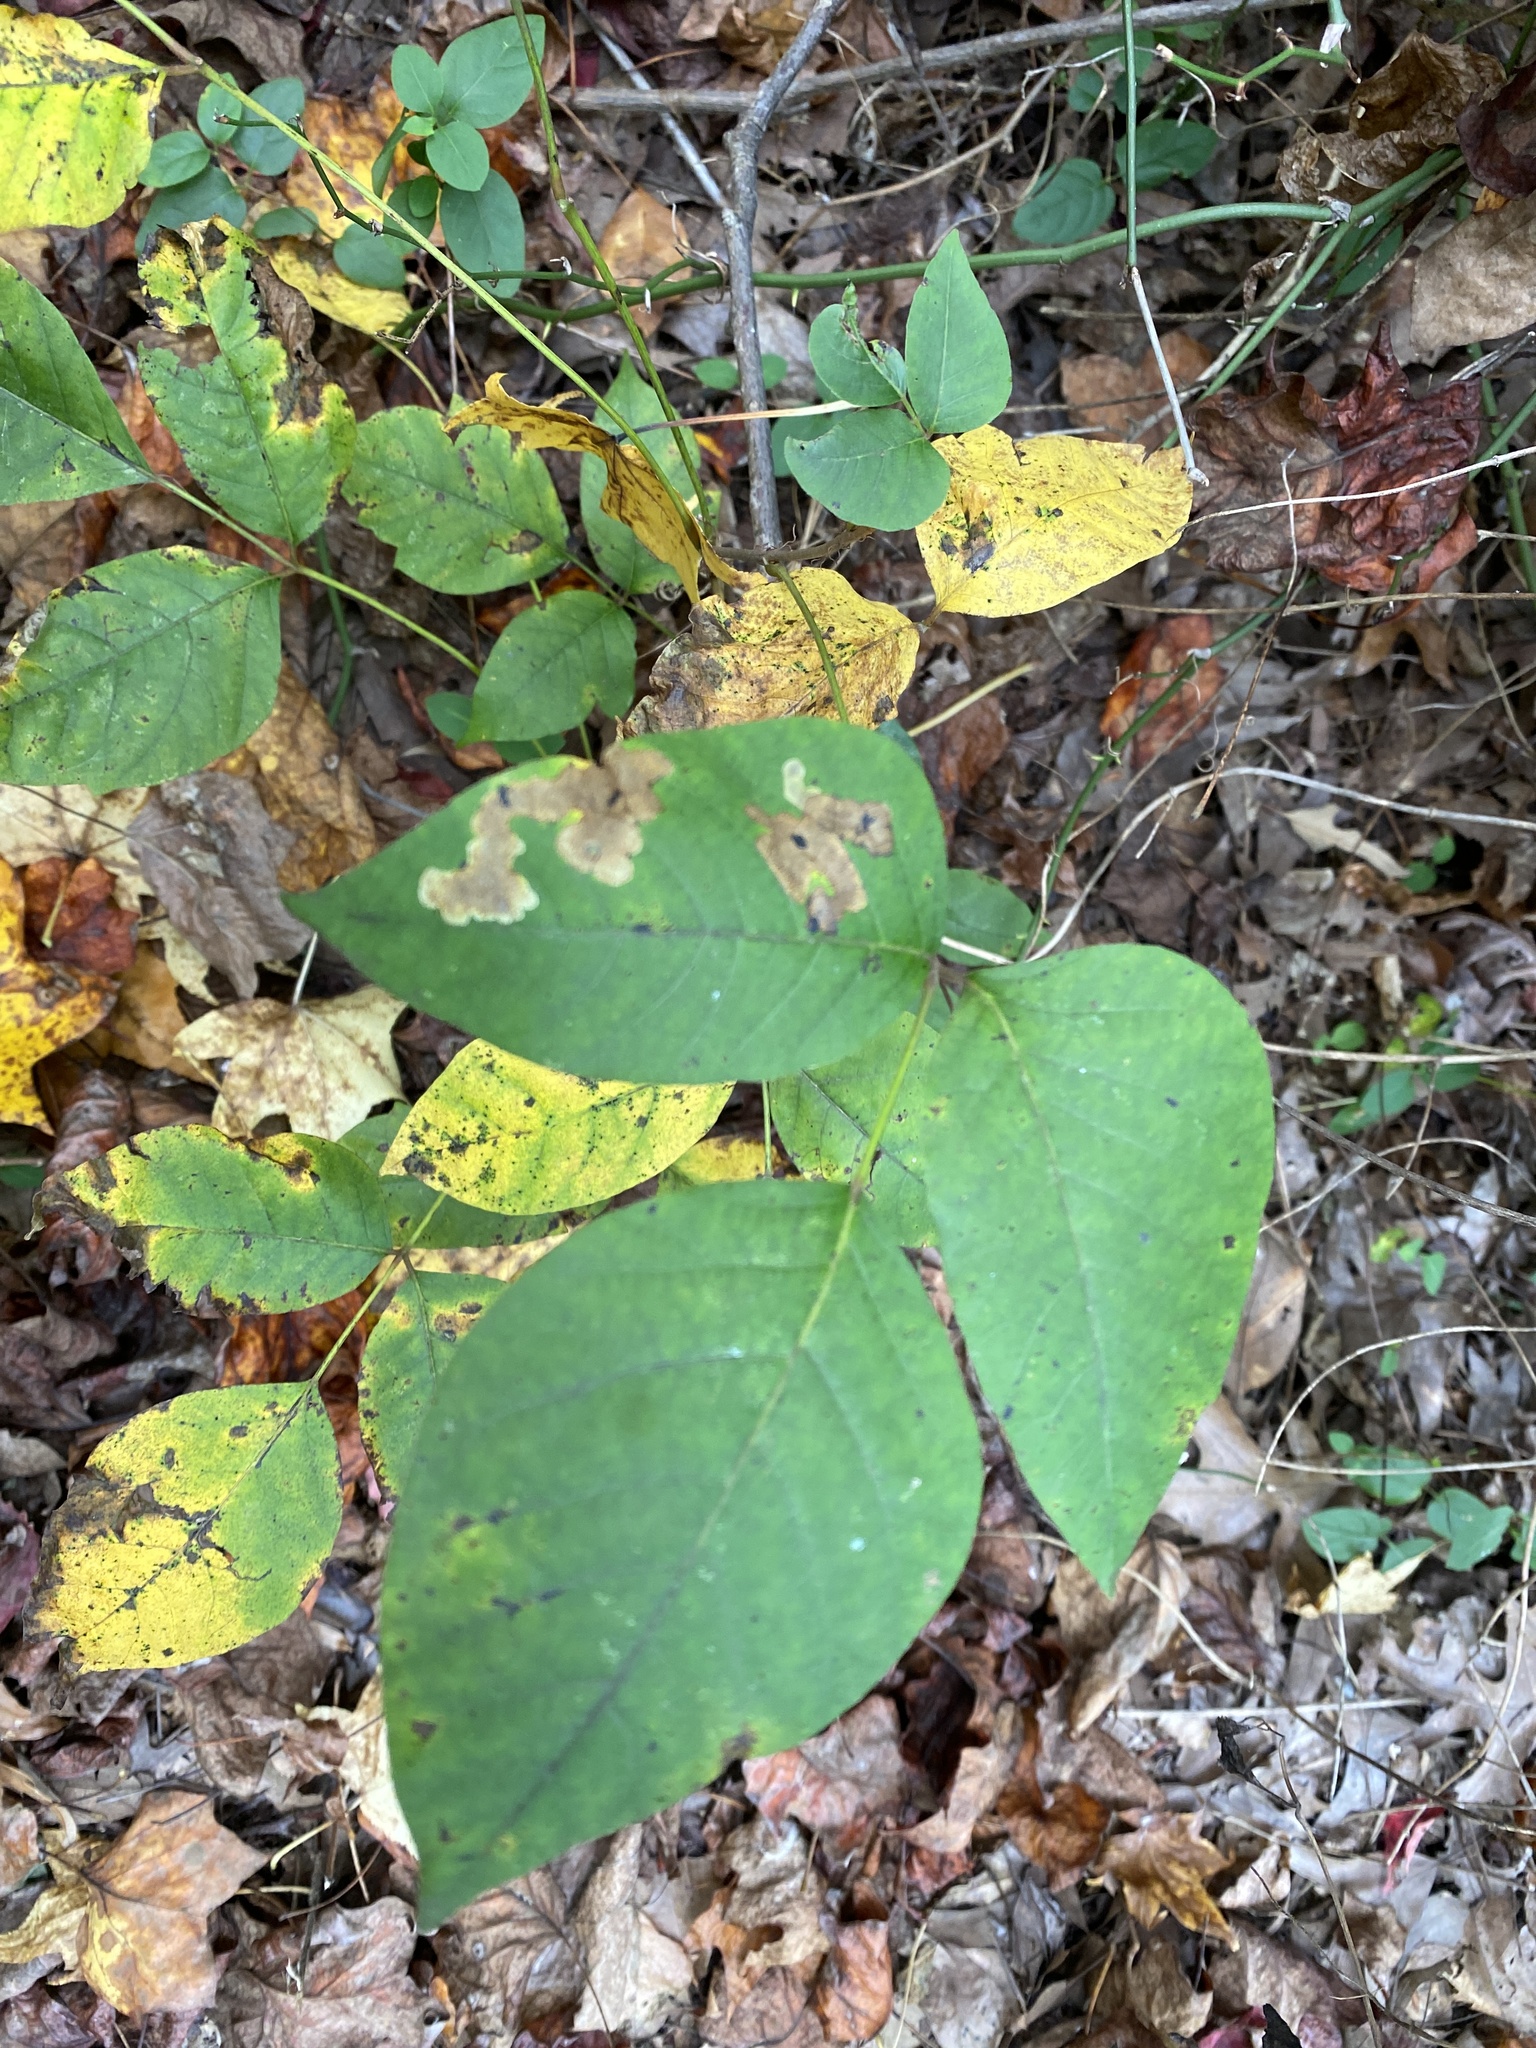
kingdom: Plantae
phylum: Tracheophyta
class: Magnoliopsida
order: Sapindales
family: Anacardiaceae
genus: Toxicodendron
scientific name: Toxicodendron radicans
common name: Poison ivy
